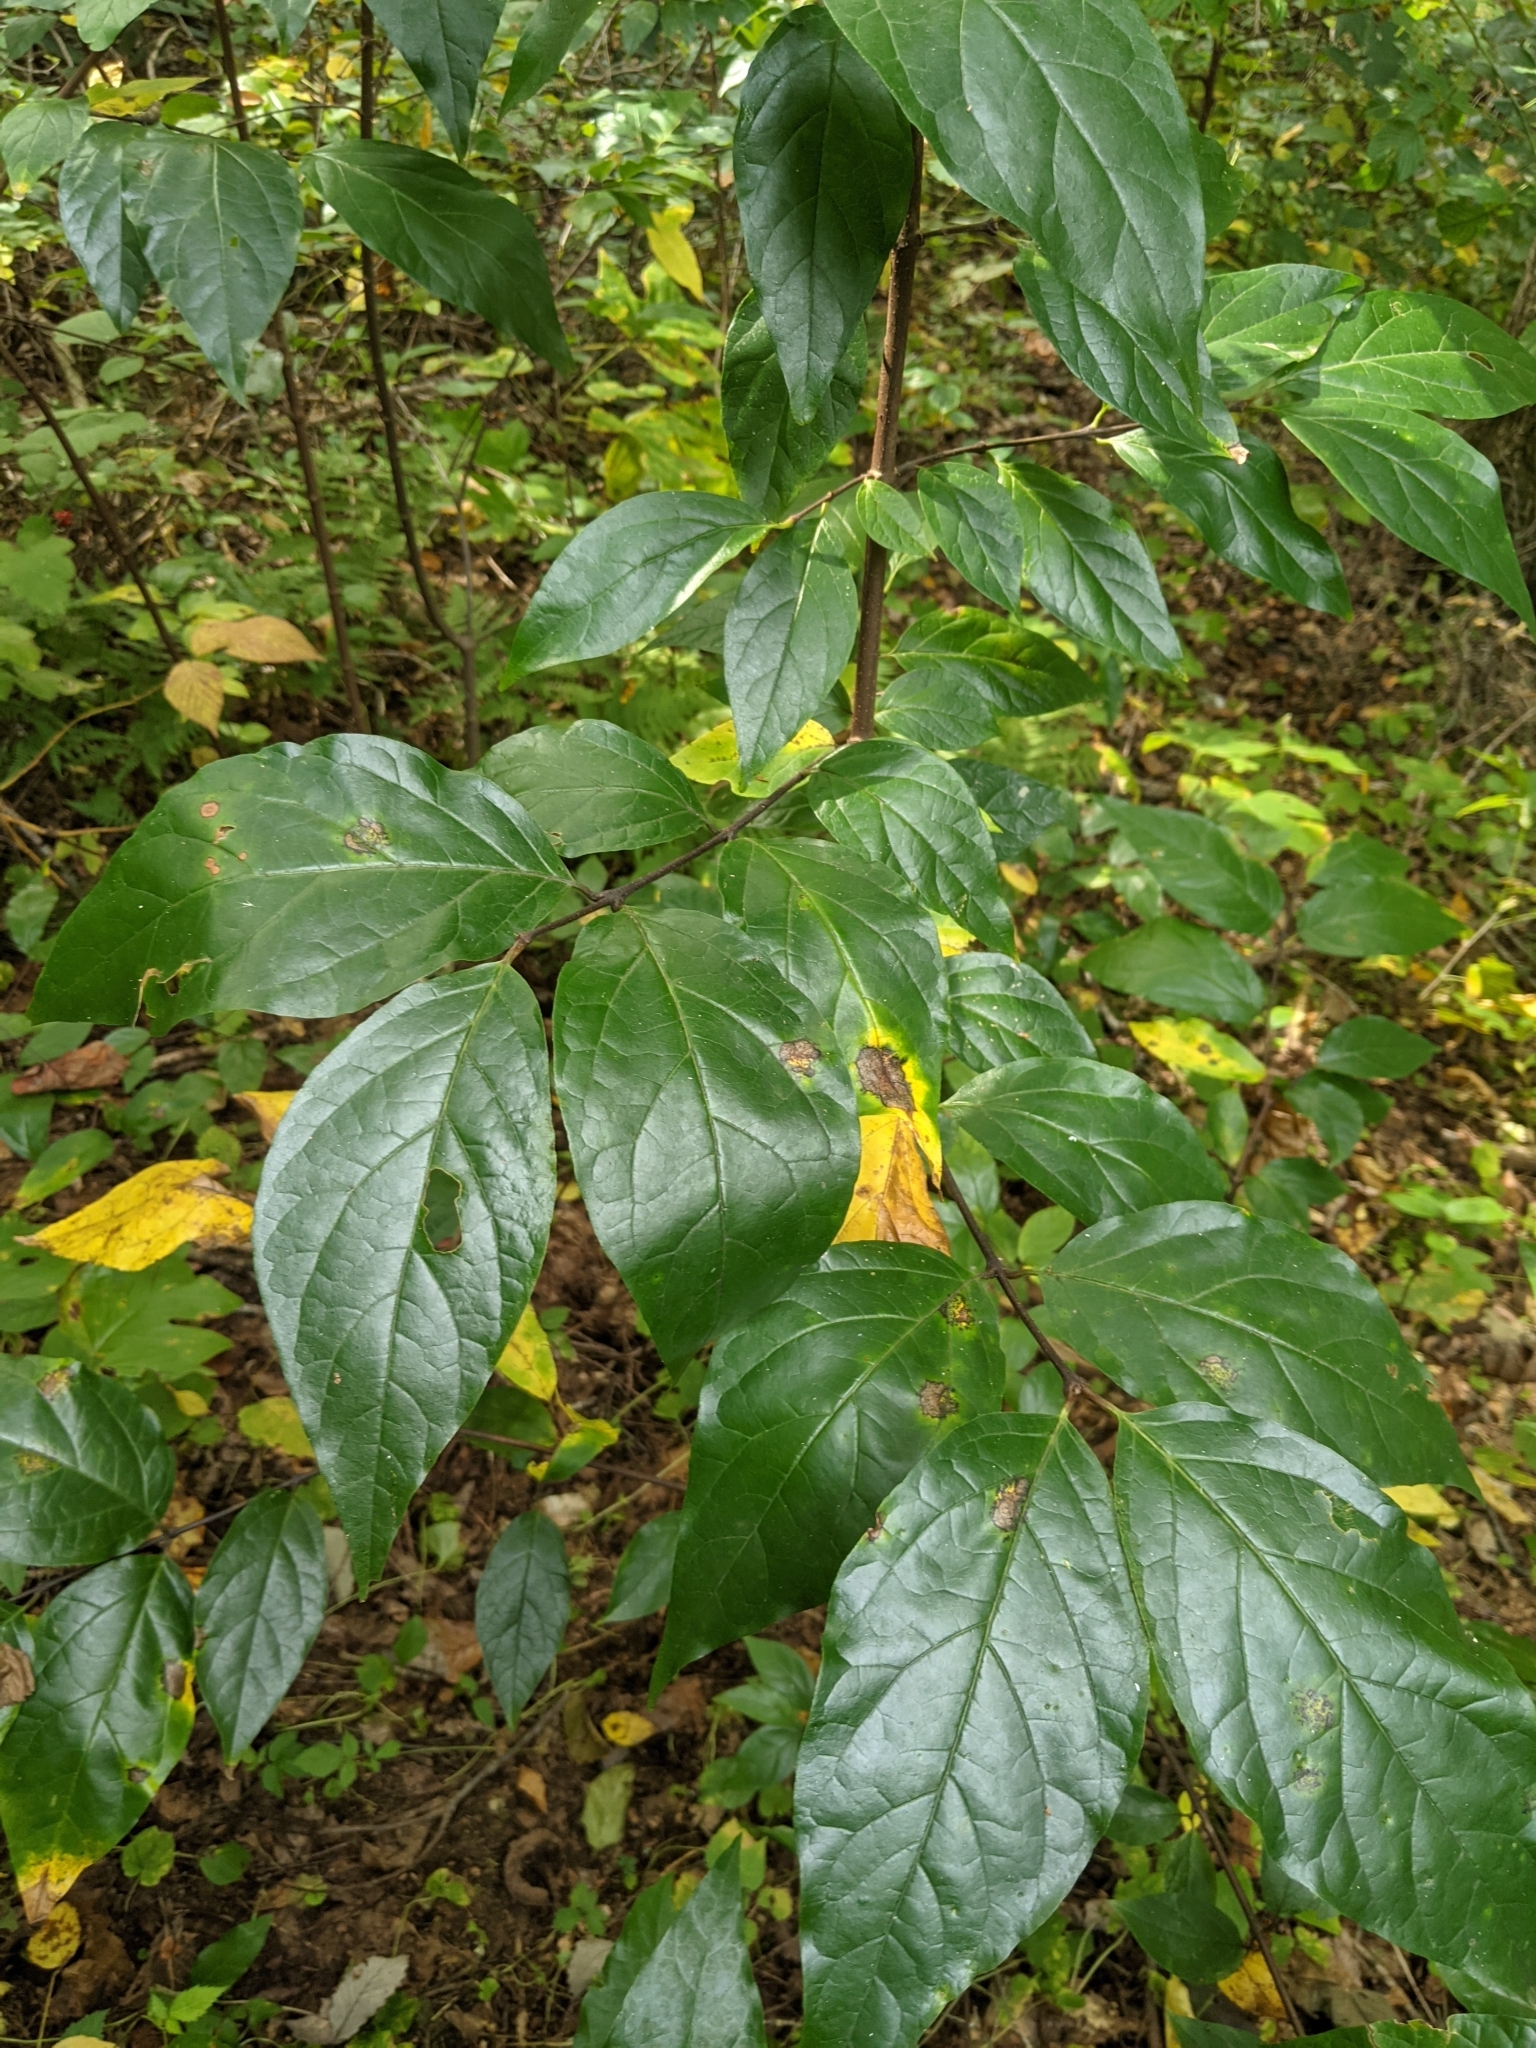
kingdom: Plantae
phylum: Tracheophyta
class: Magnoliopsida
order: Laurales
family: Calycanthaceae
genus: Calycanthus
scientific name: Calycanthus floridus
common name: Carolina-allspice
